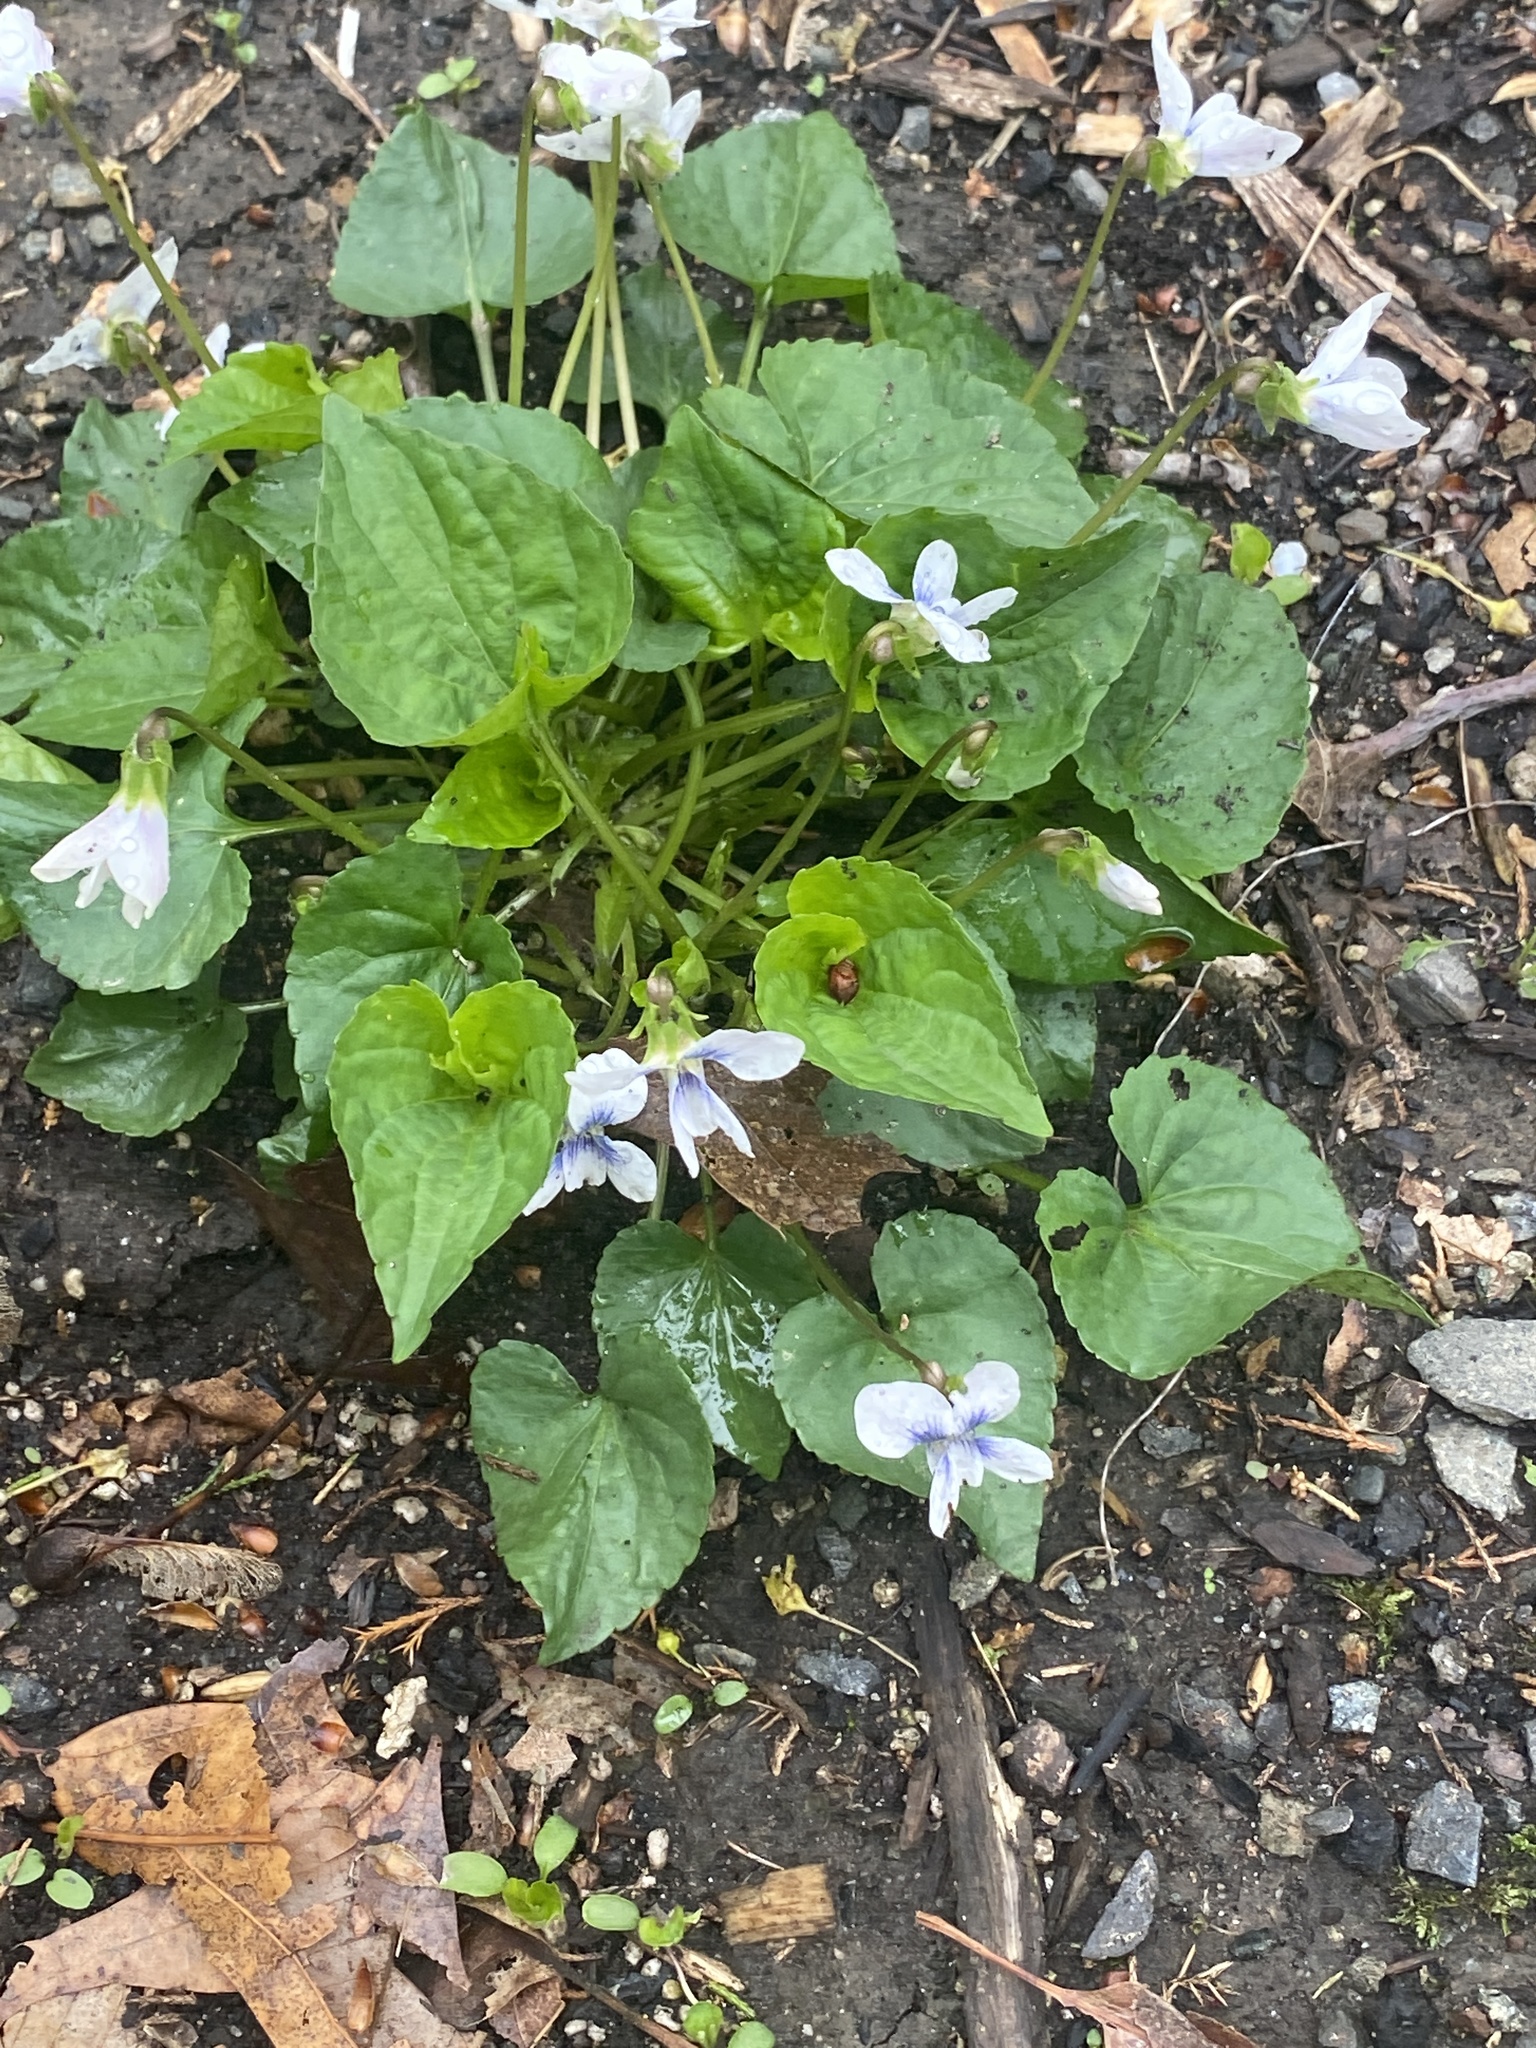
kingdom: Plantae
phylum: Tracheophyta
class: Magnoliopsida
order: Malpighiales
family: Violaceae
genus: Viola
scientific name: Viola sororia
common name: Dooryard violet
